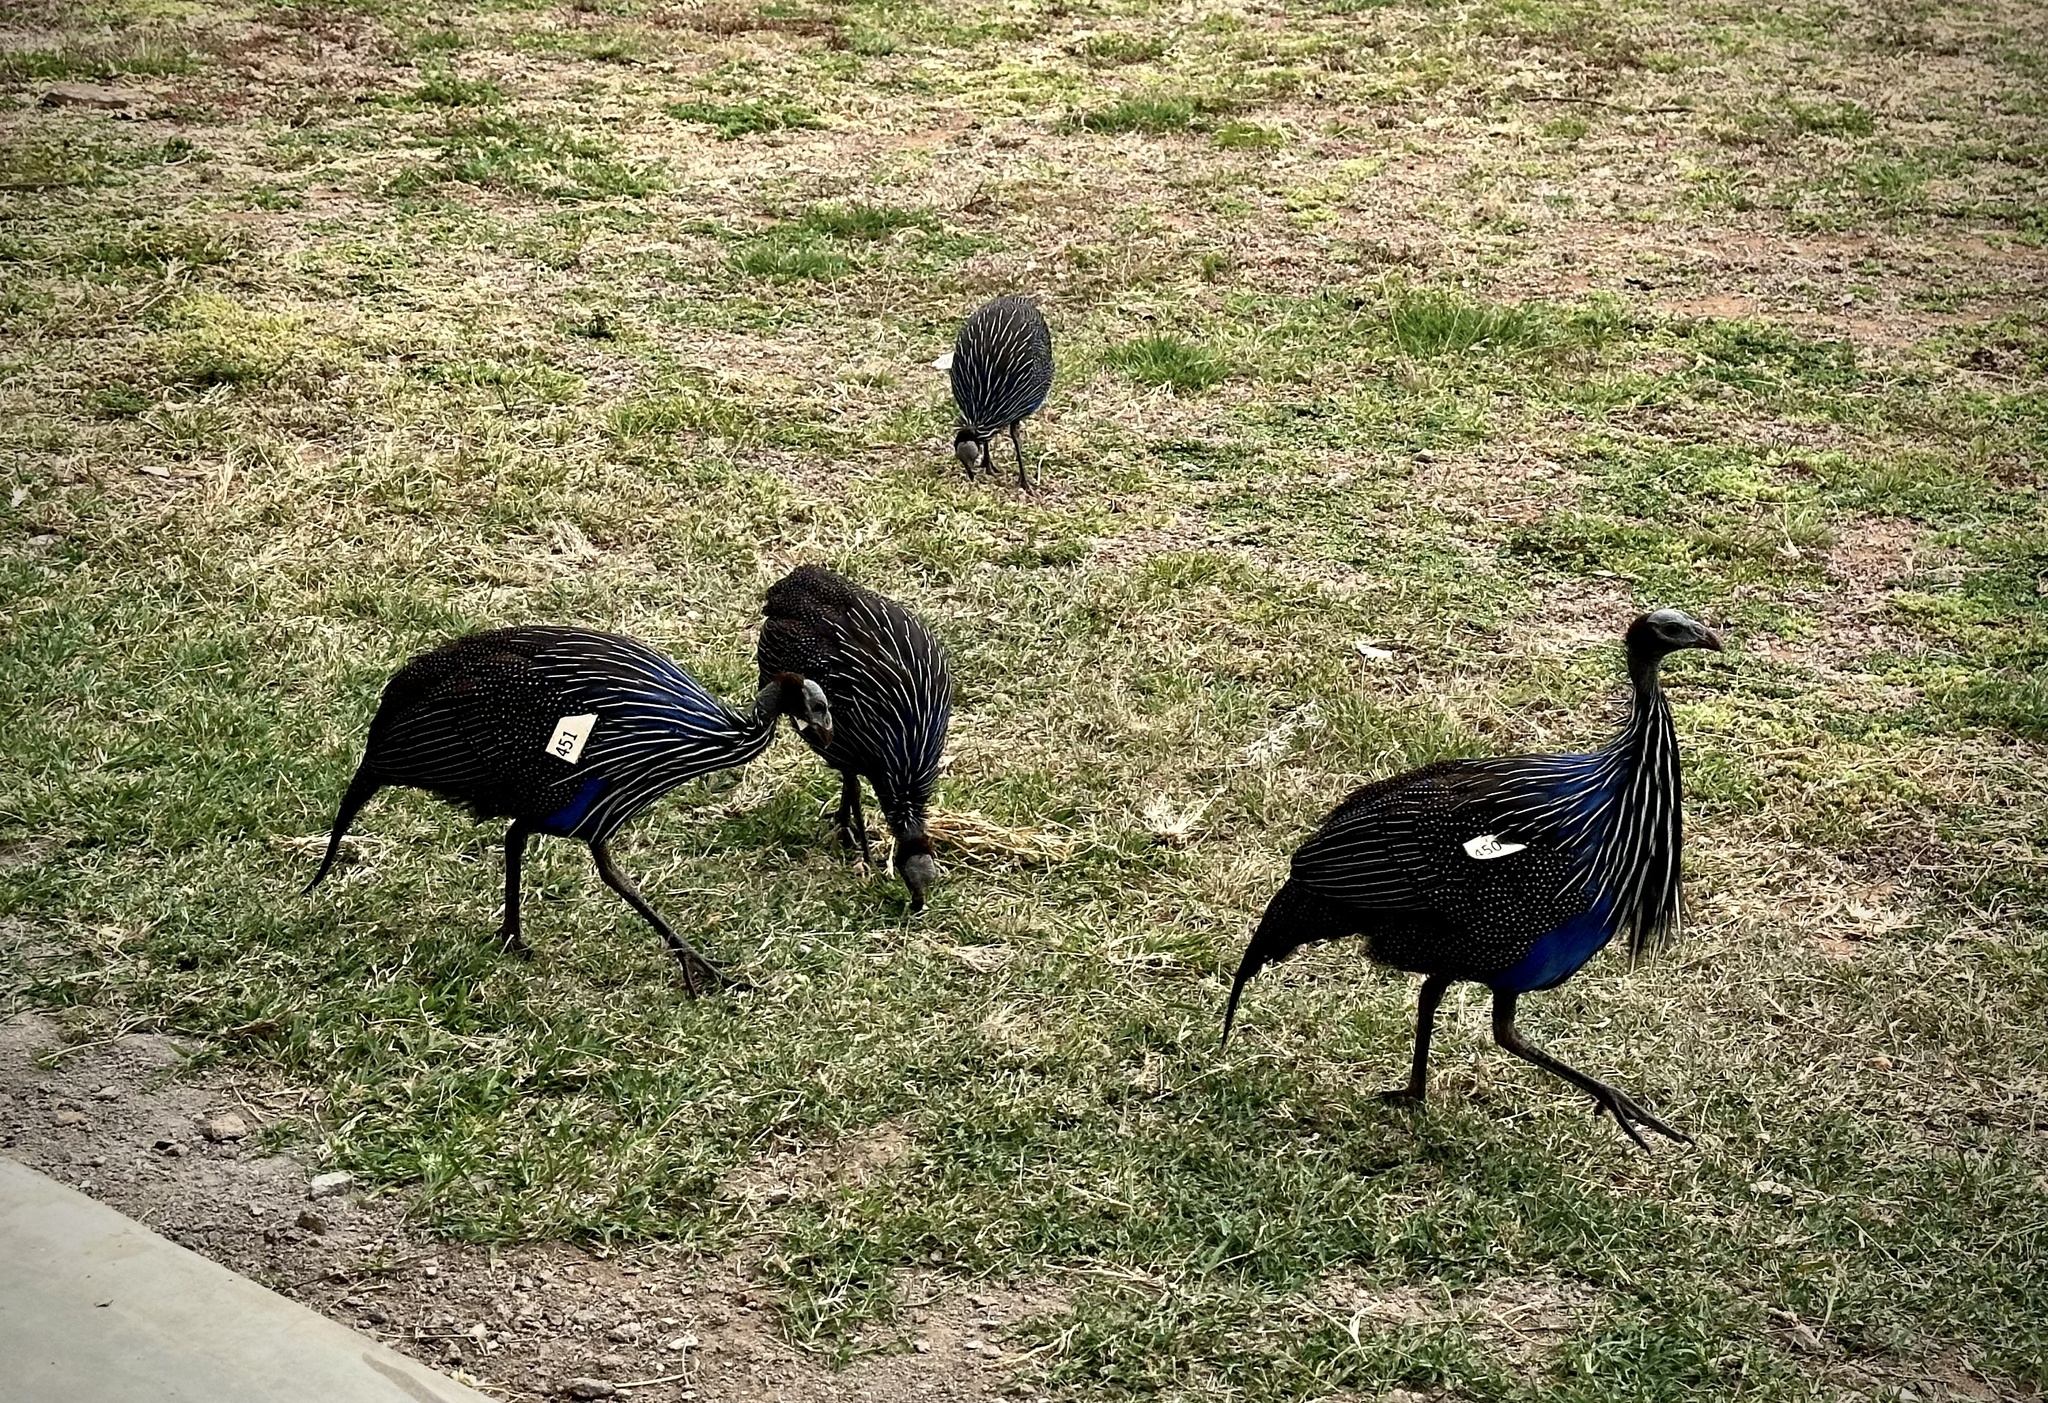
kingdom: Animalia
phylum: Chordata
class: Aves
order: Galliformes
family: Numididae
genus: Acryllium
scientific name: Acryllium vulturinum
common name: Vulturine guineafowl
